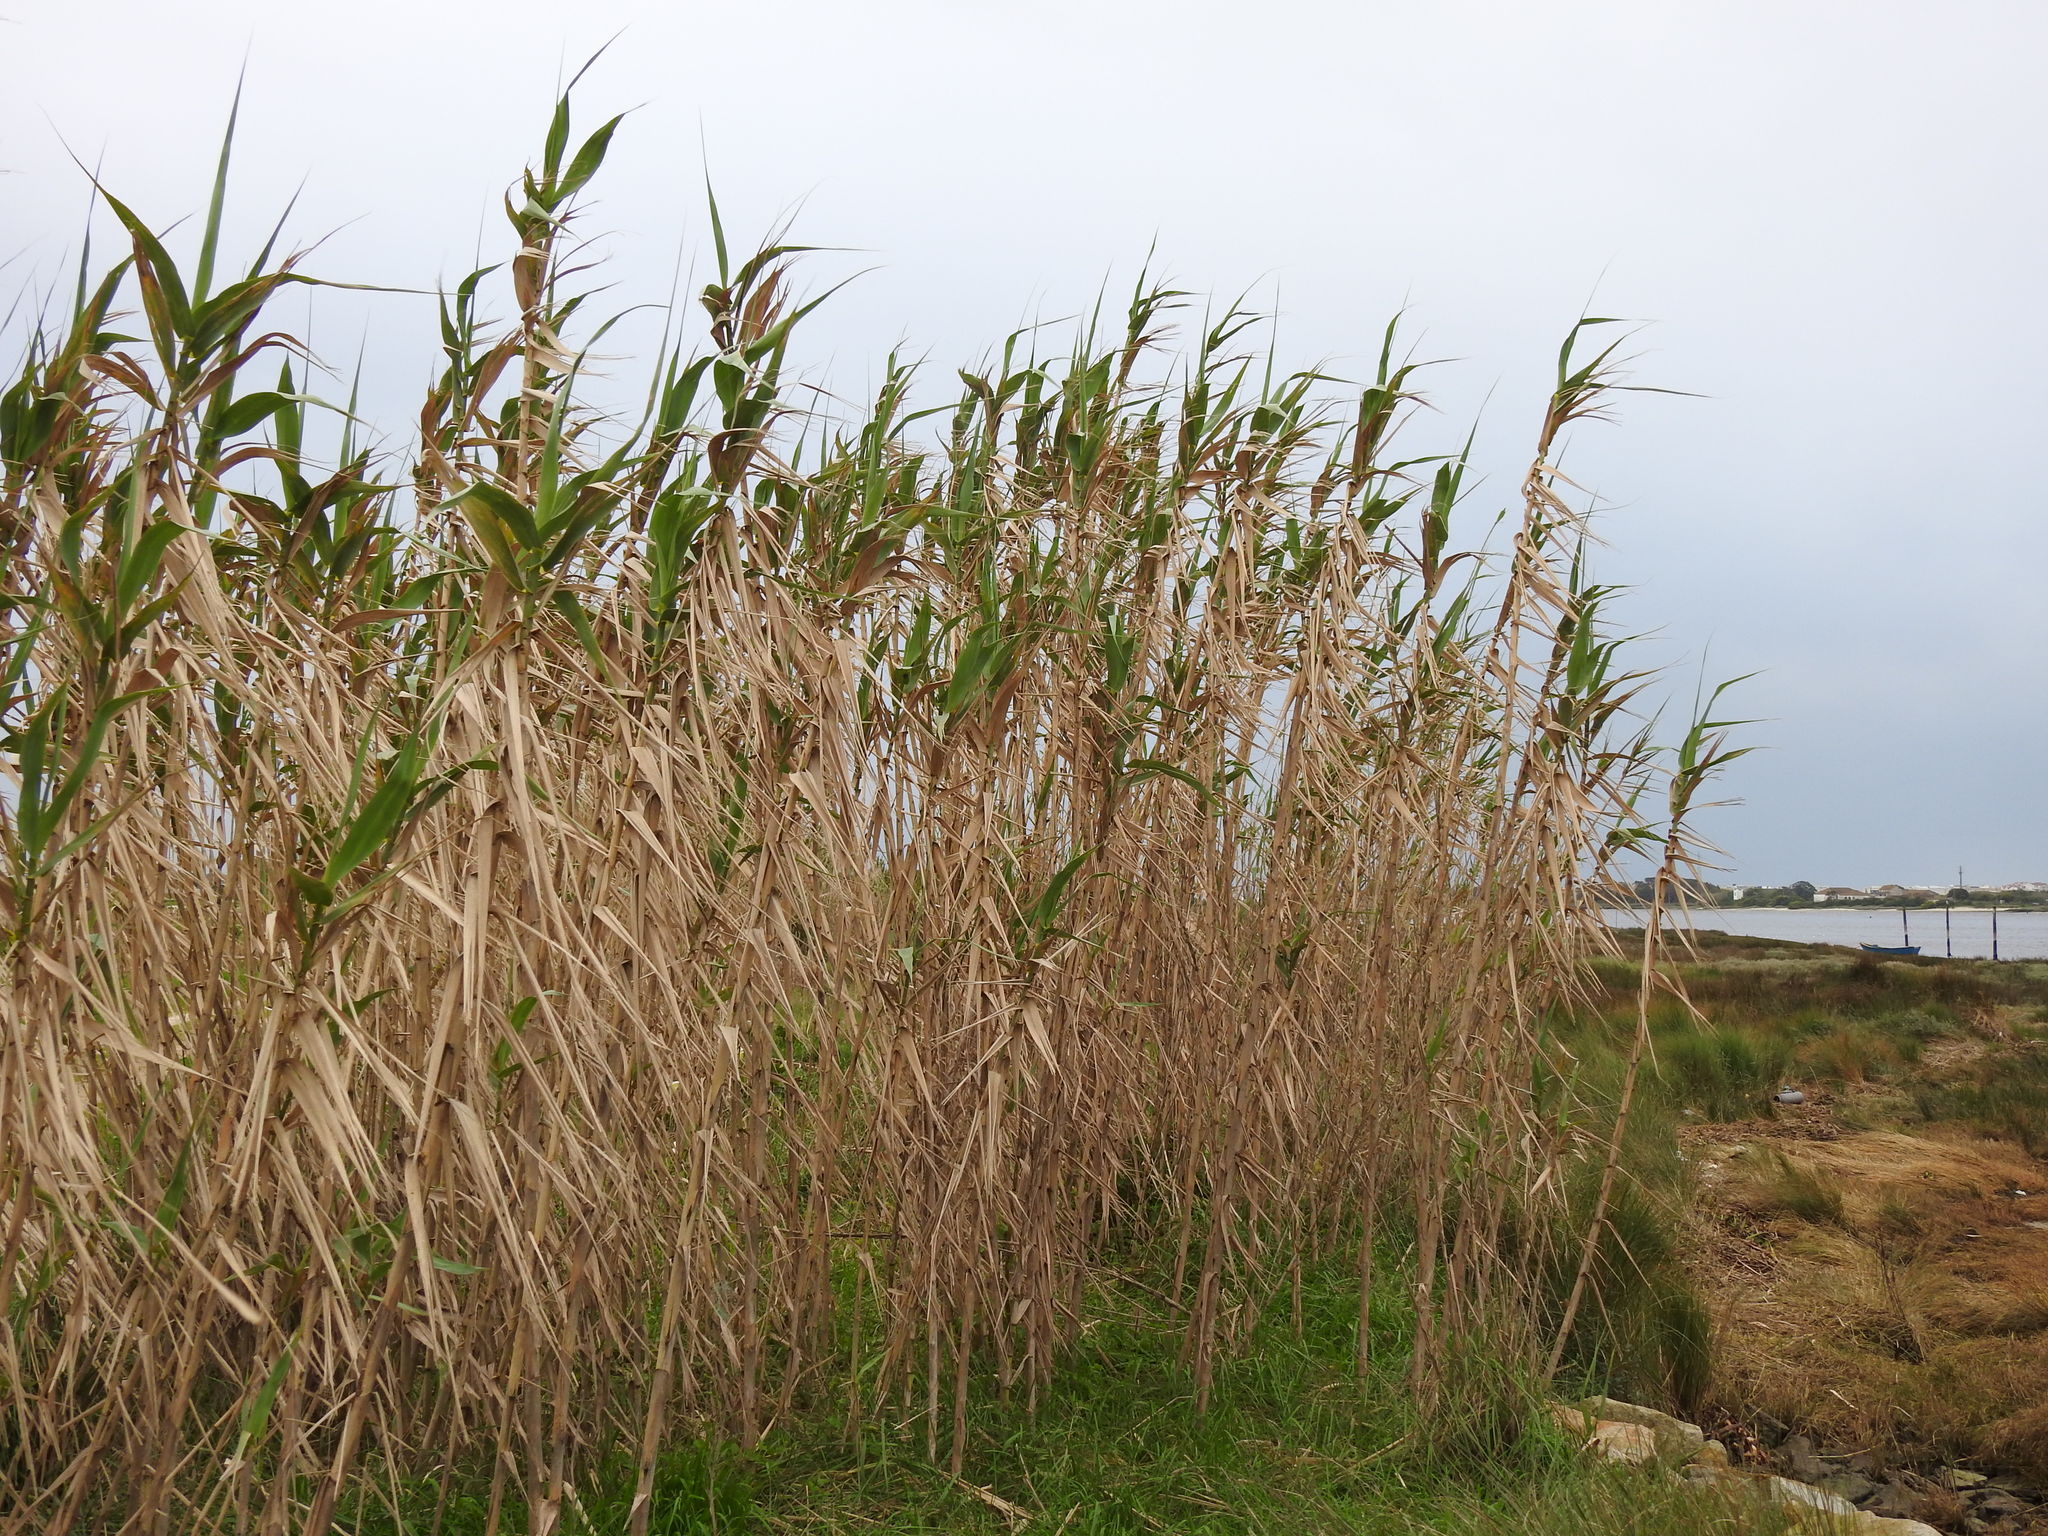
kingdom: Plantae
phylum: Tracheophyta
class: Liliopsida
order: Poales
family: Poaceae
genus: Arundo
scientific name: Arundo donax
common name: Giant reed
